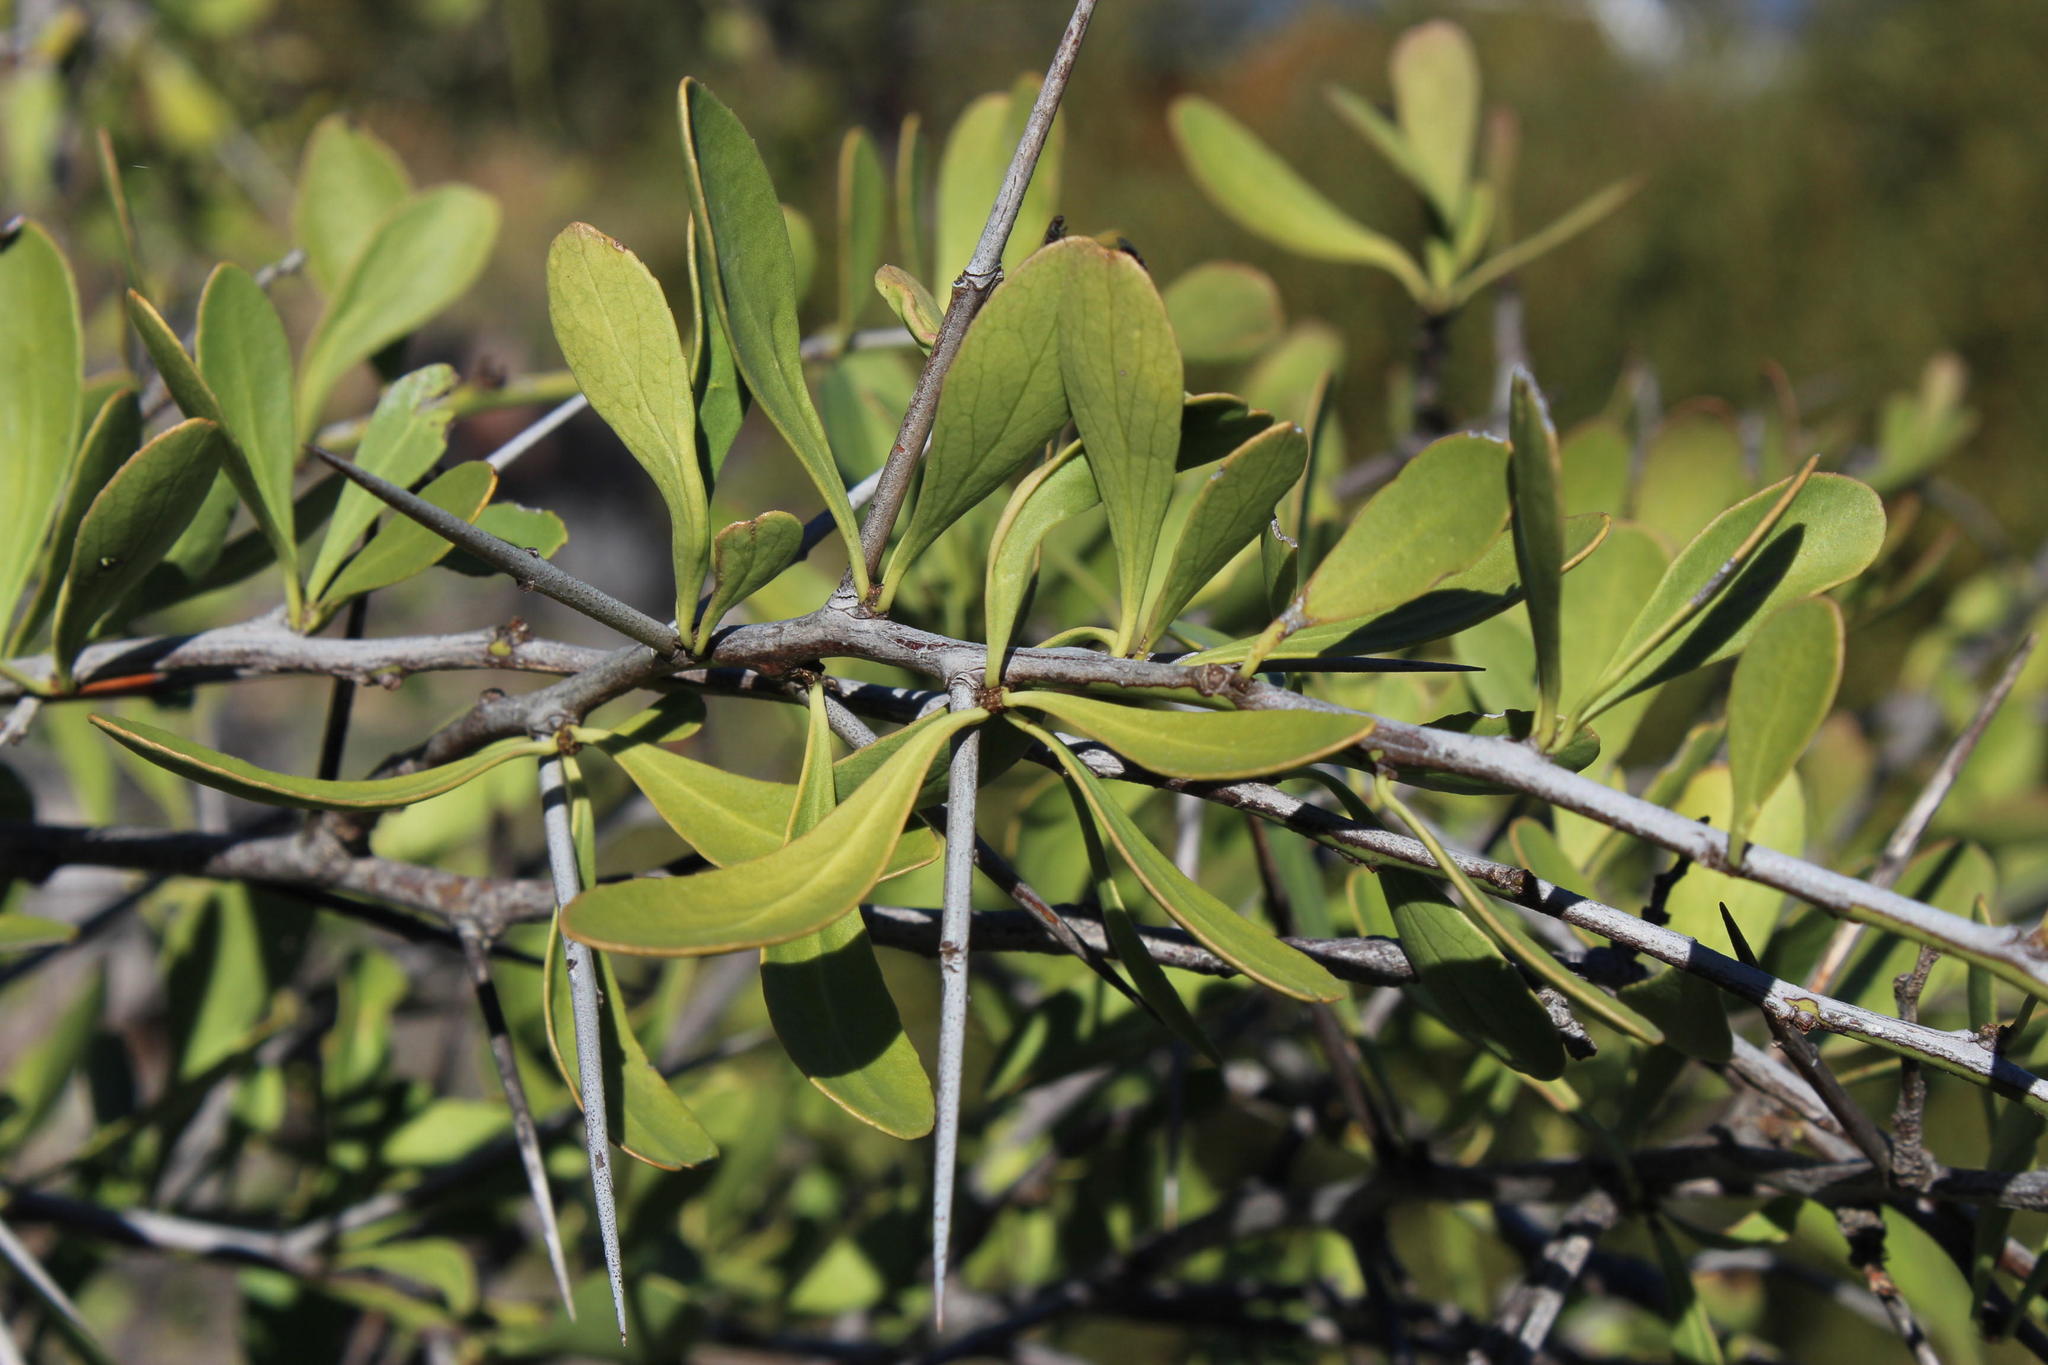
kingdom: Plantae
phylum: Tracheophyta
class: Magnoliopsida
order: Celastrales
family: Celastraceae
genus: Gymnosporia
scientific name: Gymnosporia buxifolia
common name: Common spike-thorn
